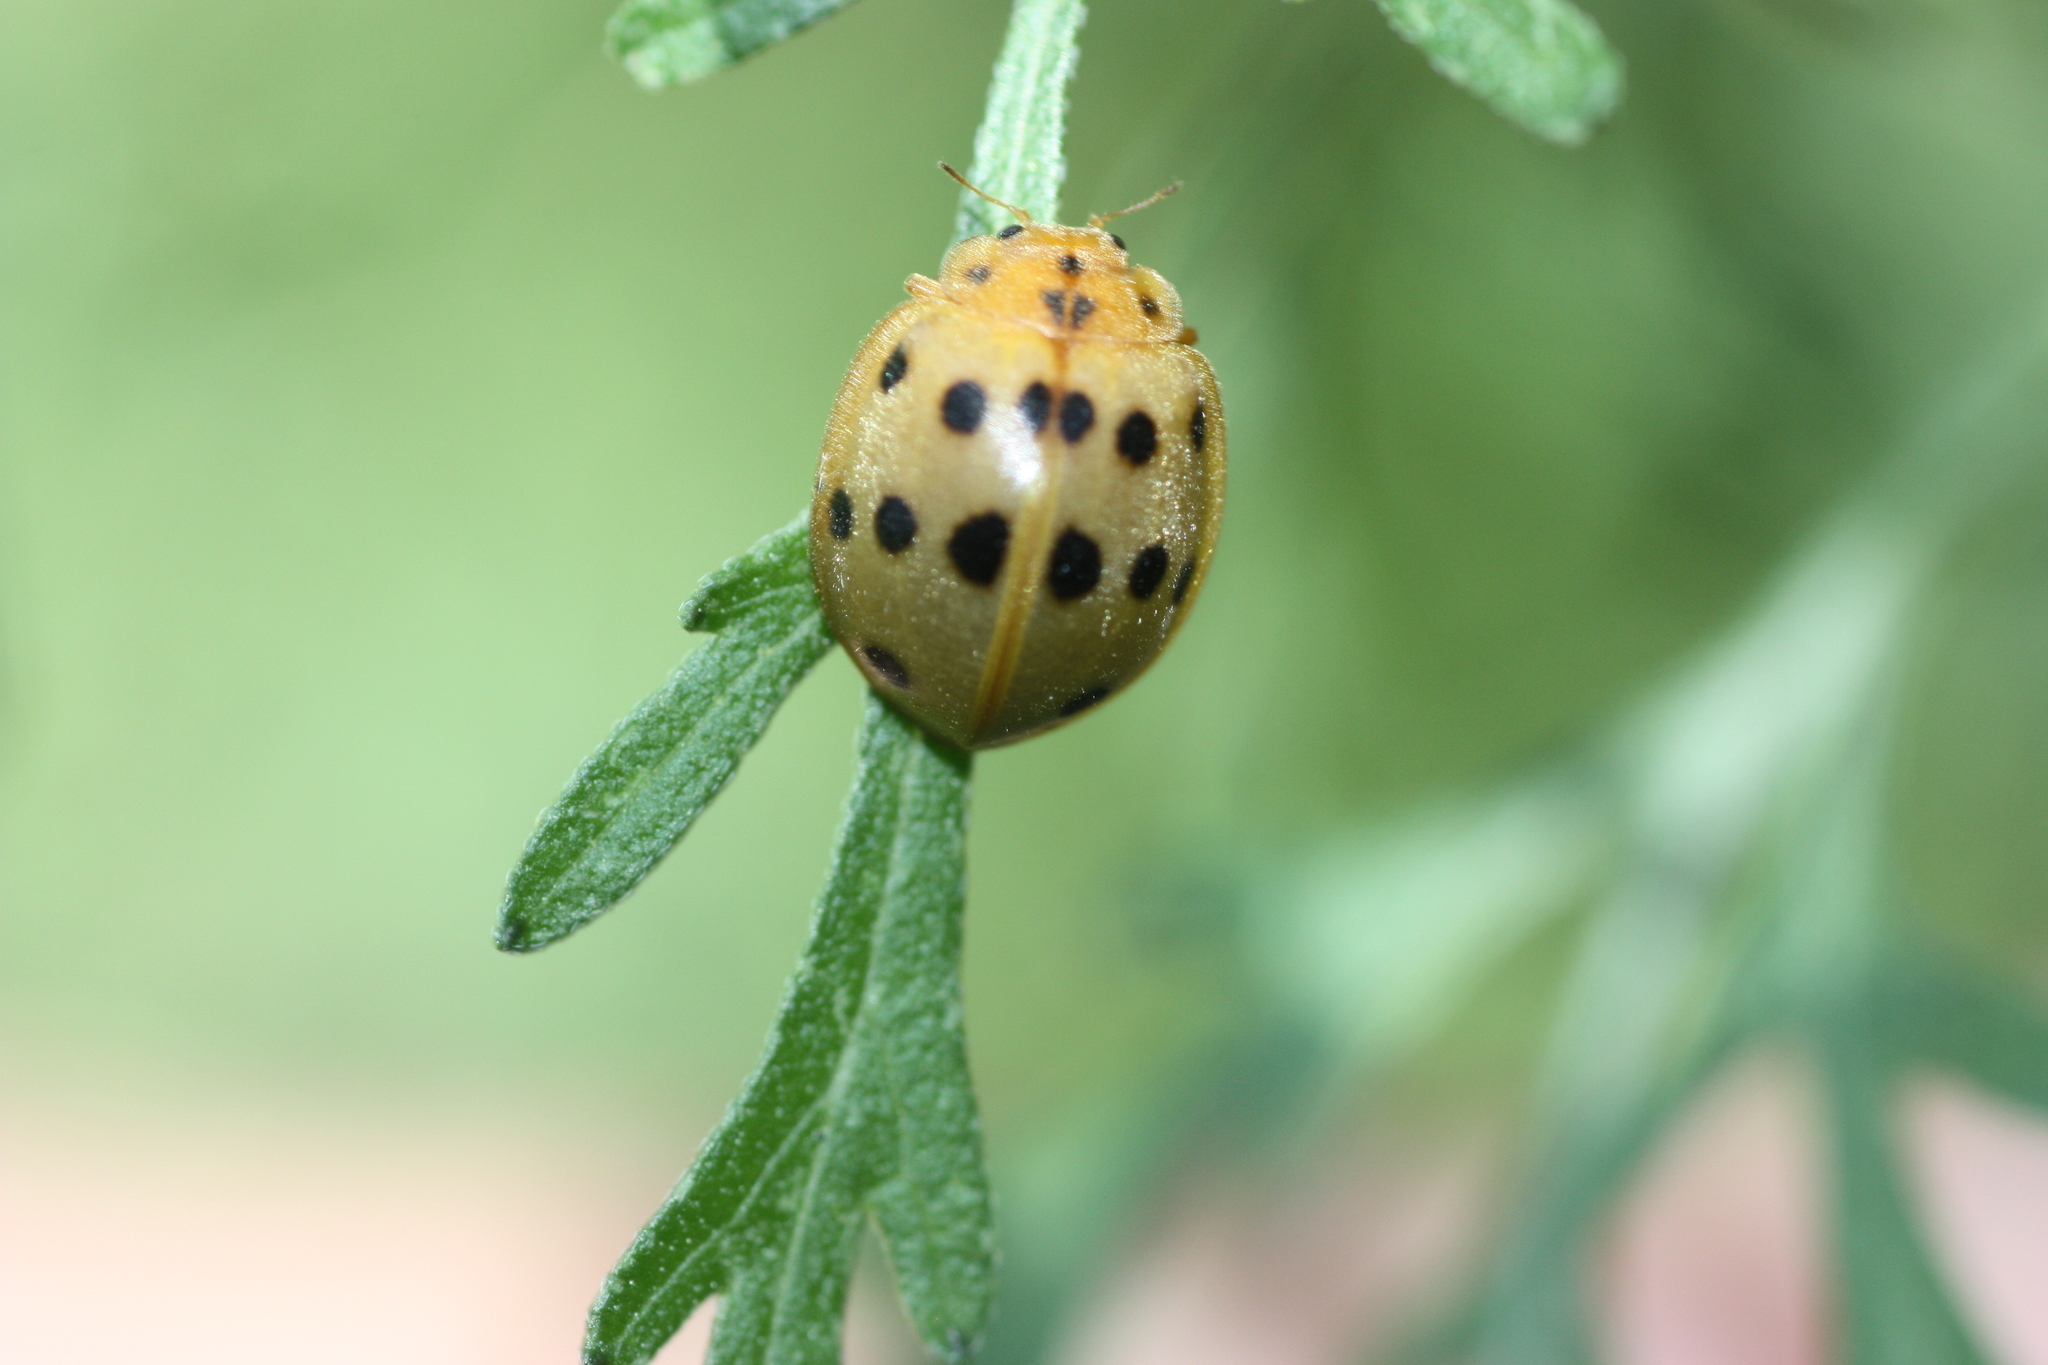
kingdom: Animalia
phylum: Arthropoda
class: Insecta
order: Coleoptera
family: Coccinellidae
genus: Epilachna
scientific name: Epilachna tredecimnotata
